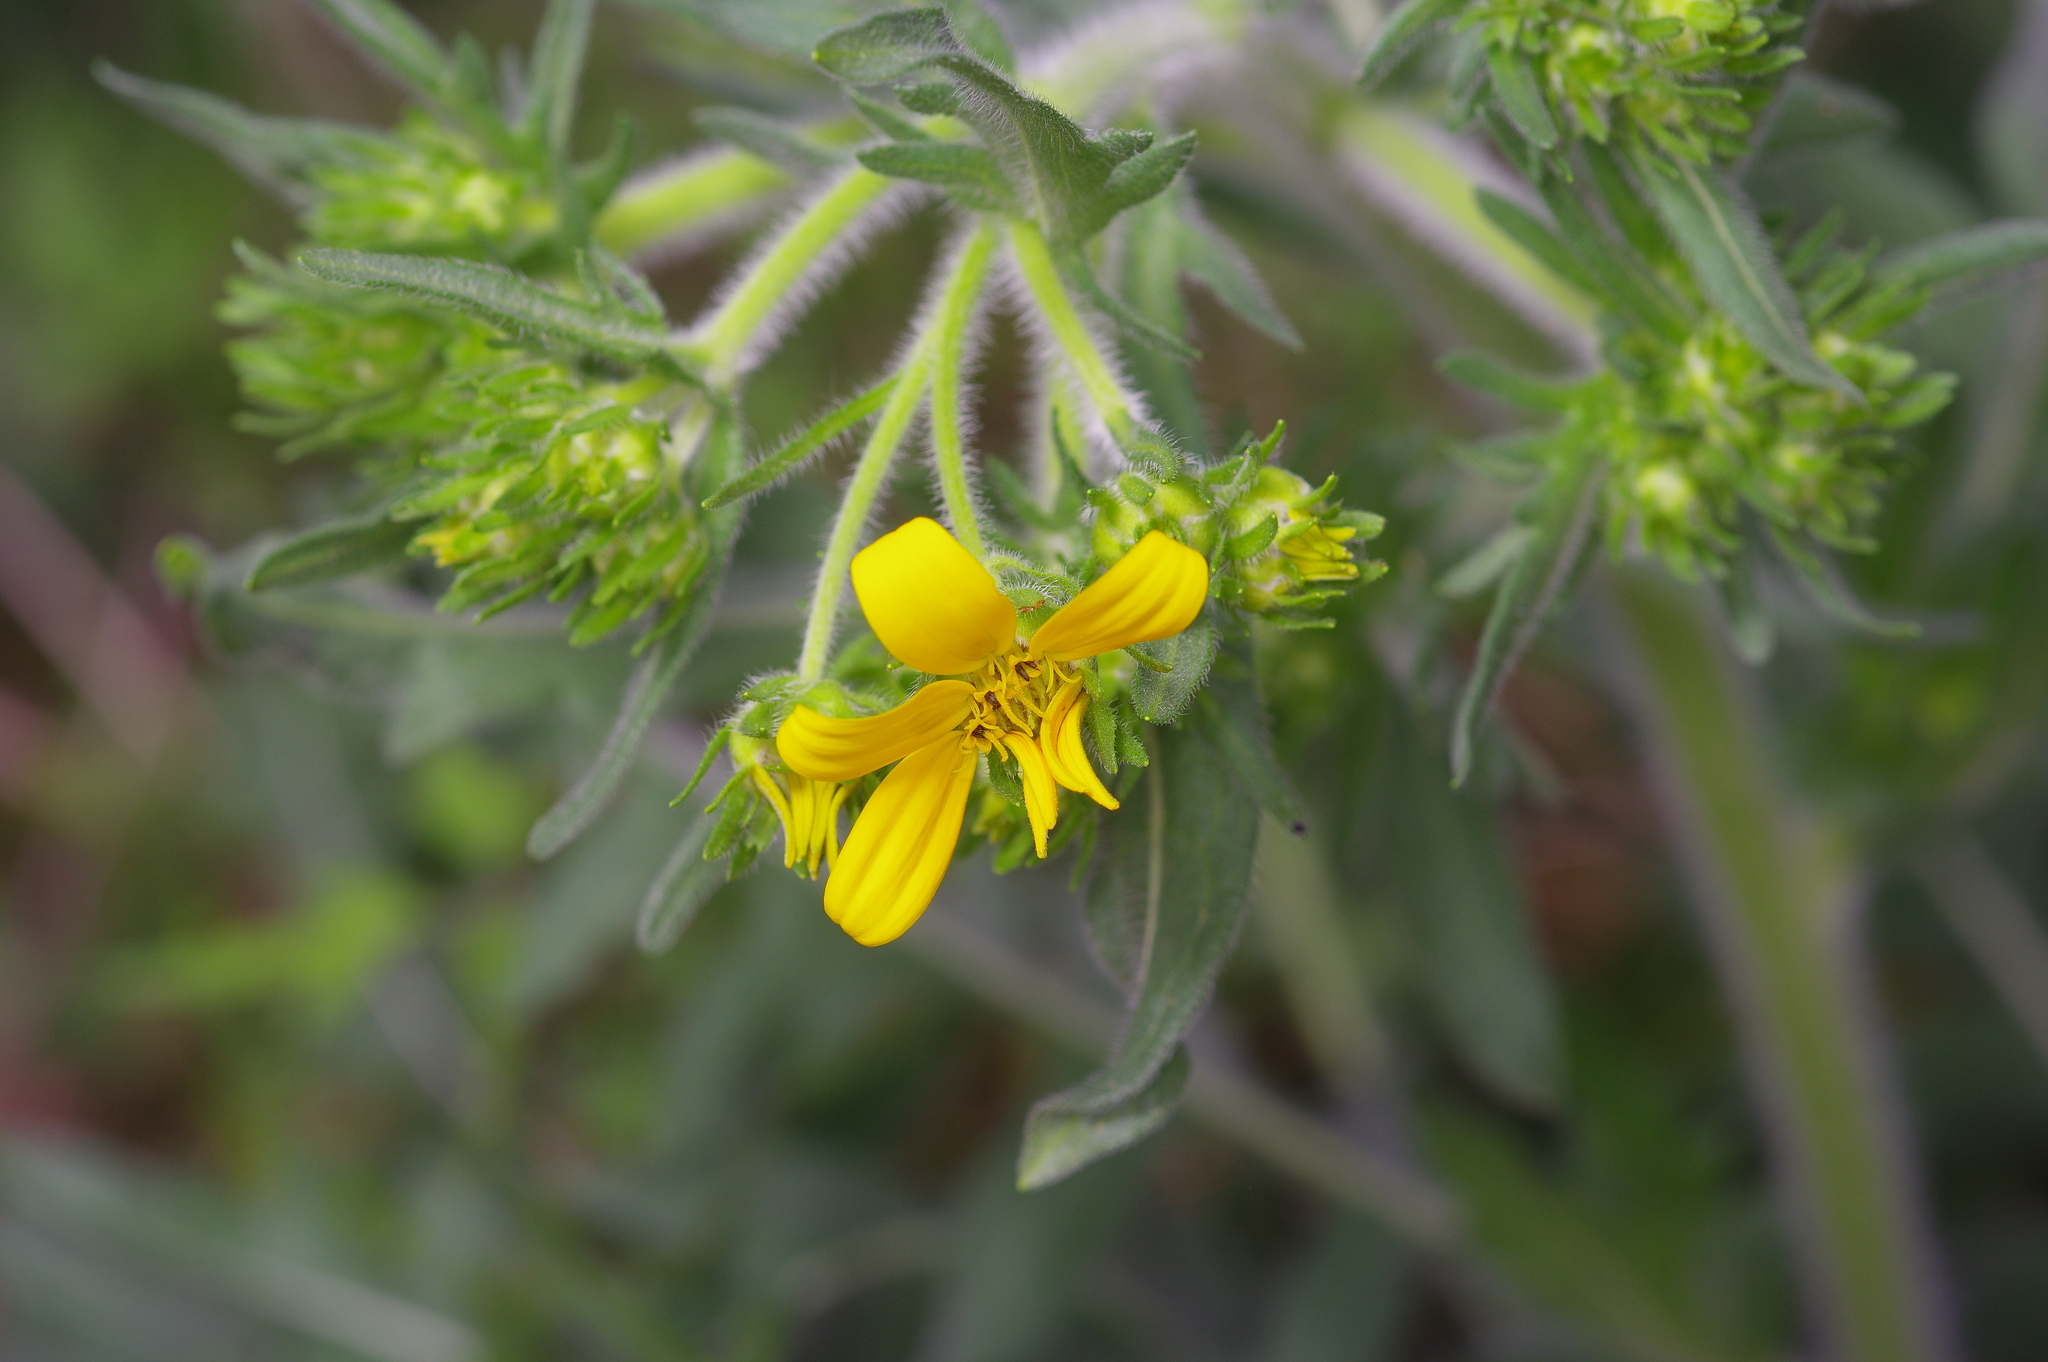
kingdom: Plantae
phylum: Tracheophyta
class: Magnoliopsida
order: Asterales
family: Asteraceae
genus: Engelmannia
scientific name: Engelmannia peristenia
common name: Engelmann's daisy
